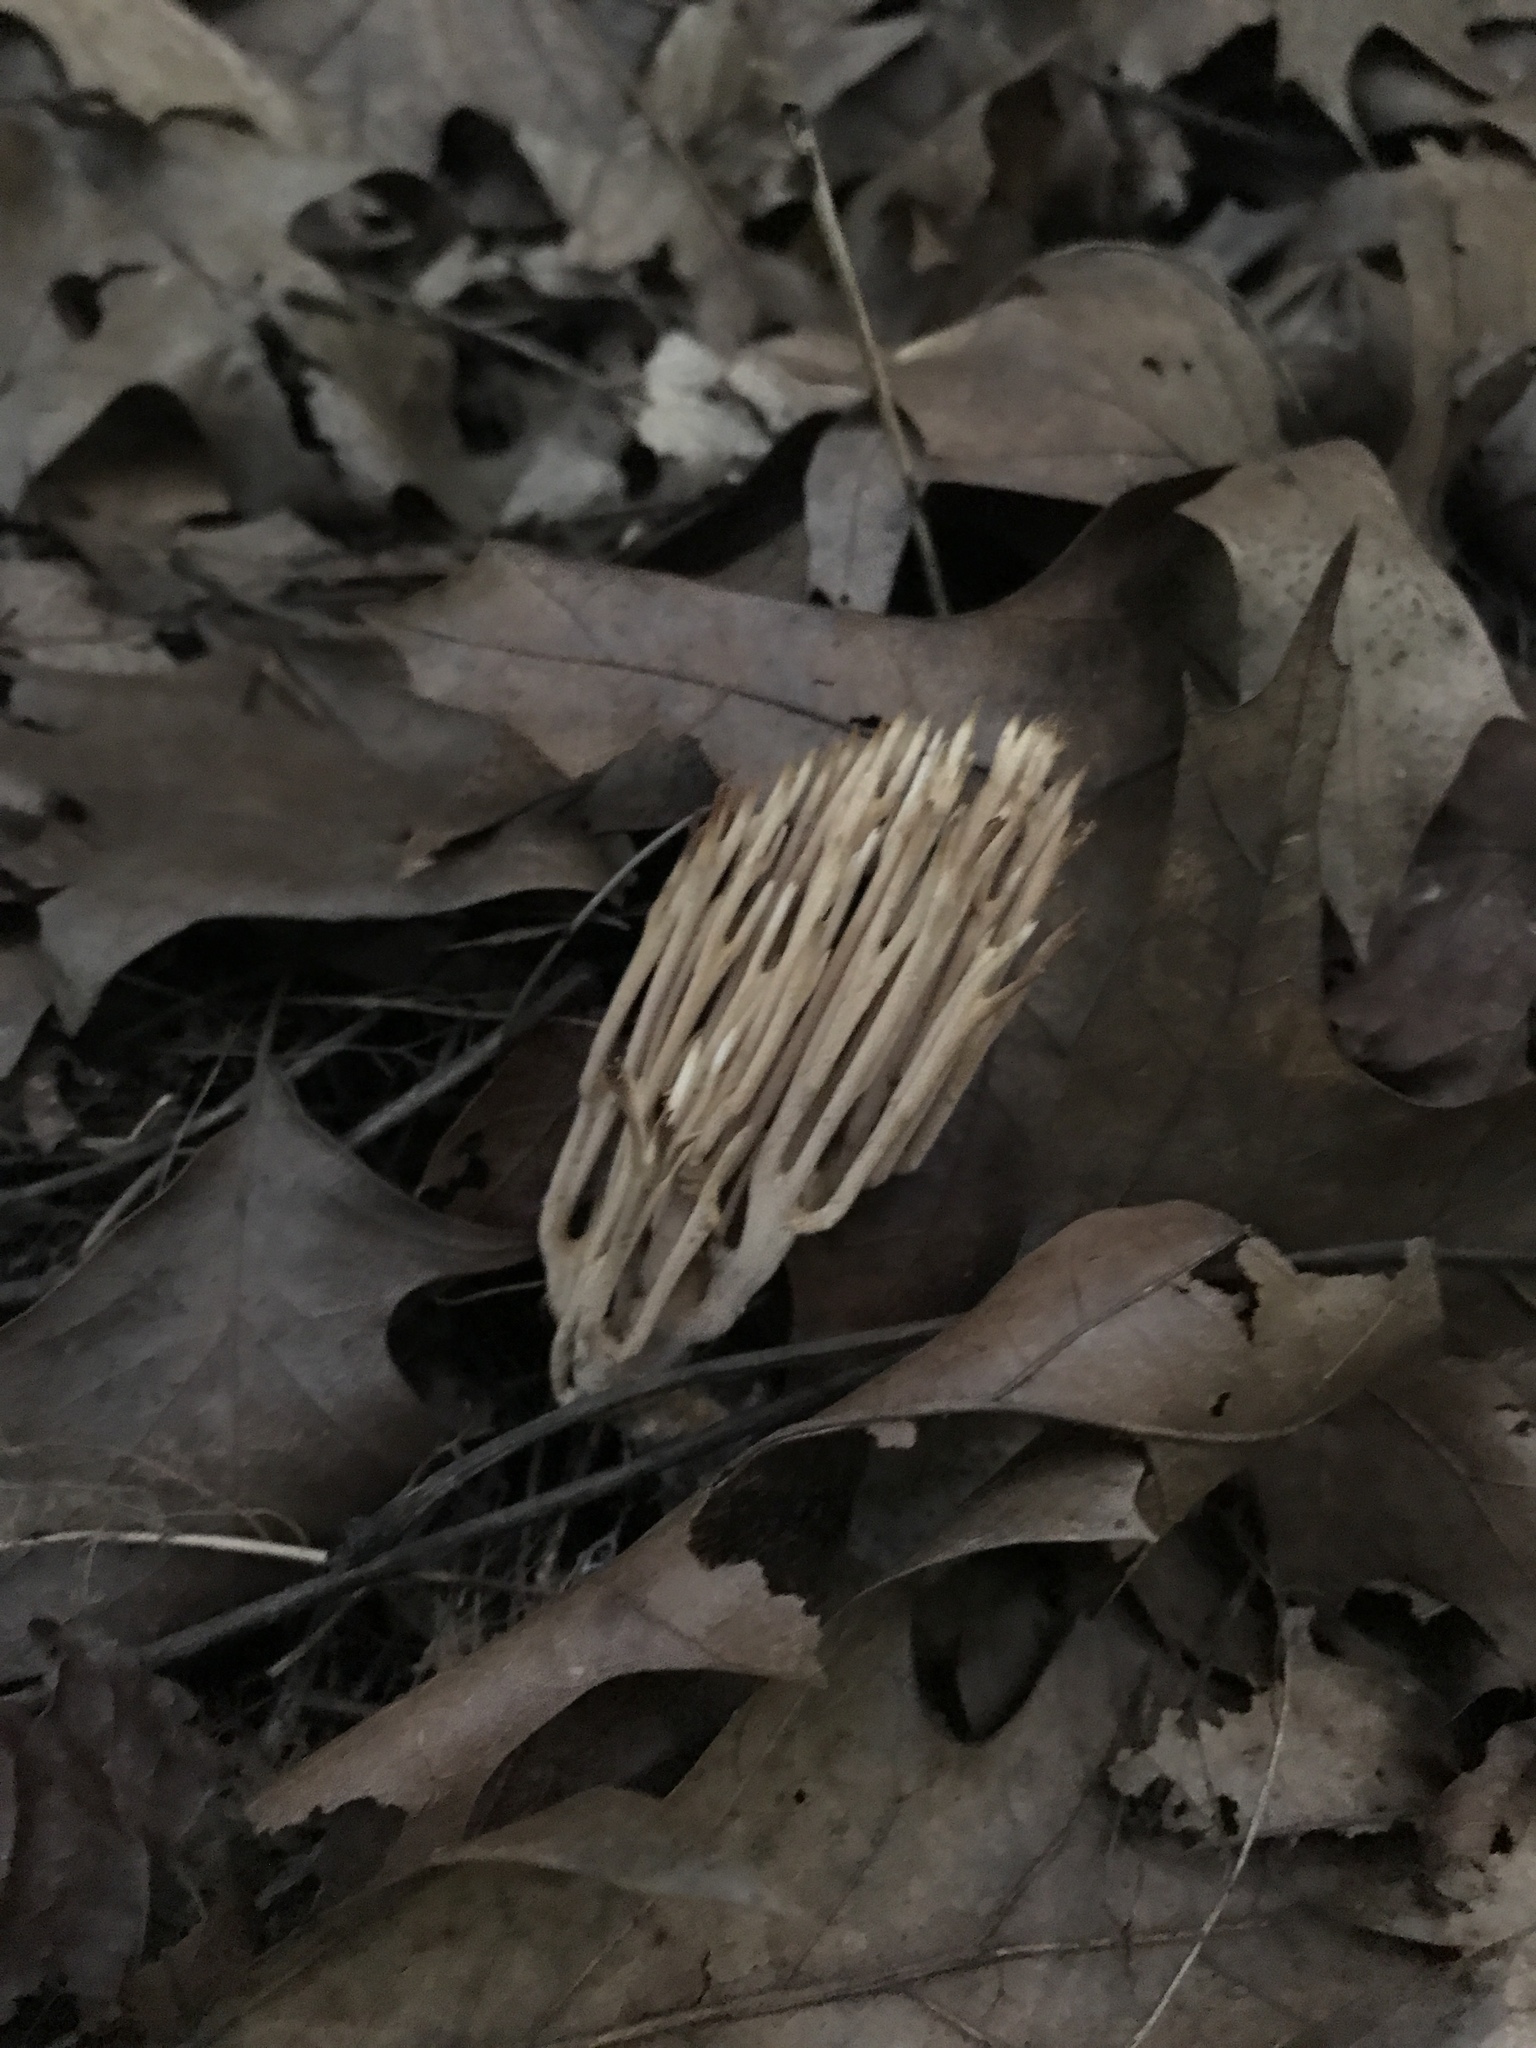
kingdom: Fungi
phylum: Basidiomycota
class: Agaricomycetes
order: Gomphales
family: Gomphaceae
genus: Ramaria
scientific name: Ramaria stricta
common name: Upright coral
